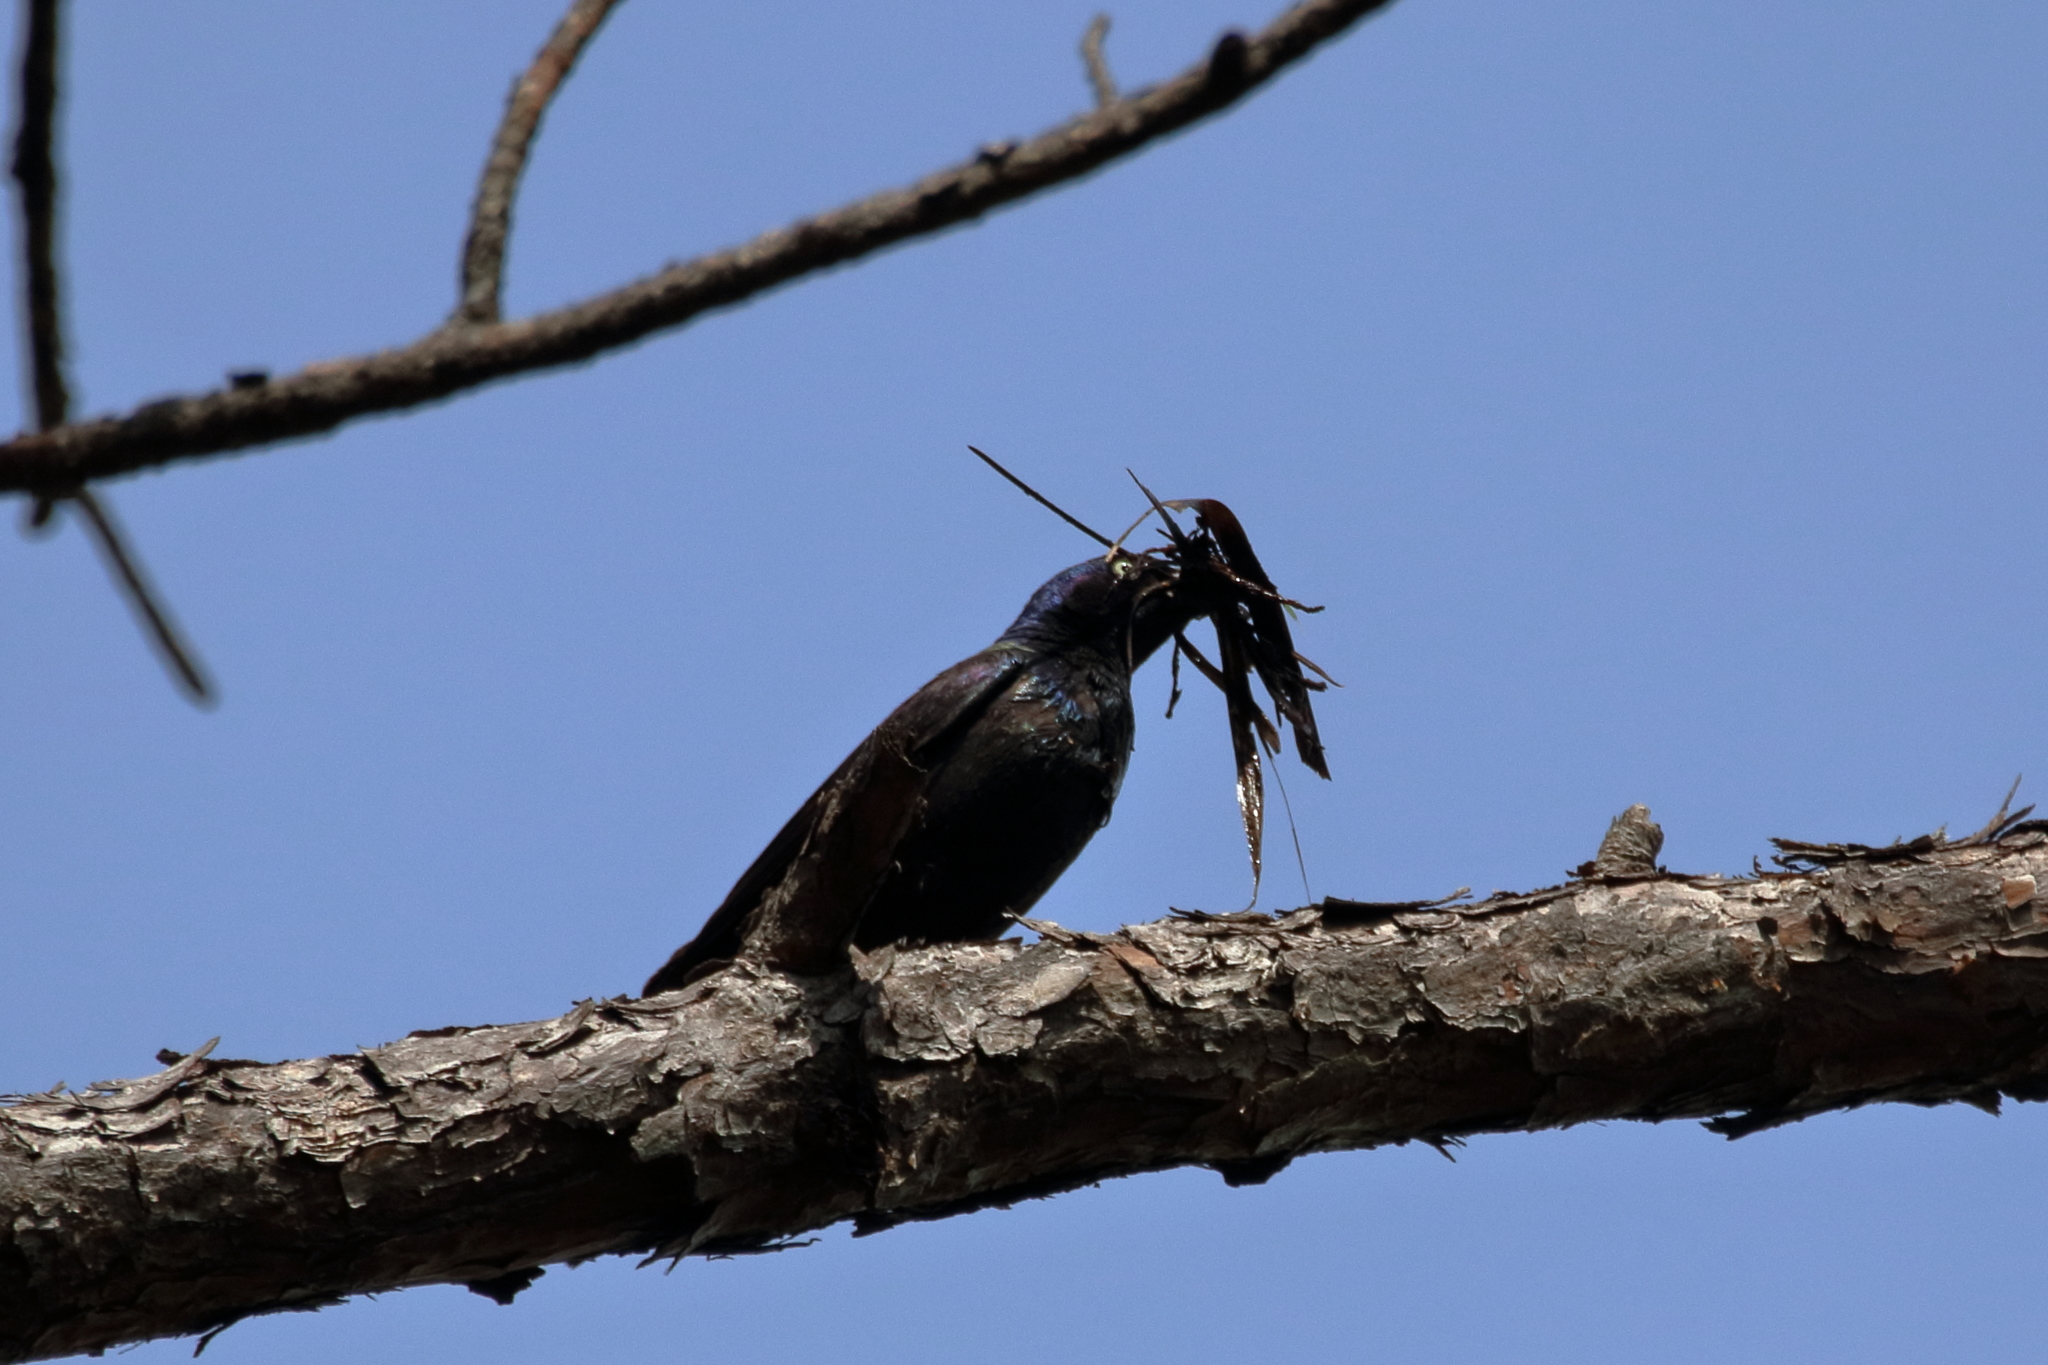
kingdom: Animalia
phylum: Chordata
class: Aves
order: Passeriformes
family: Icteridae
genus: Quiscalus
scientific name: Quiscalus quiscula
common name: Common grackle
